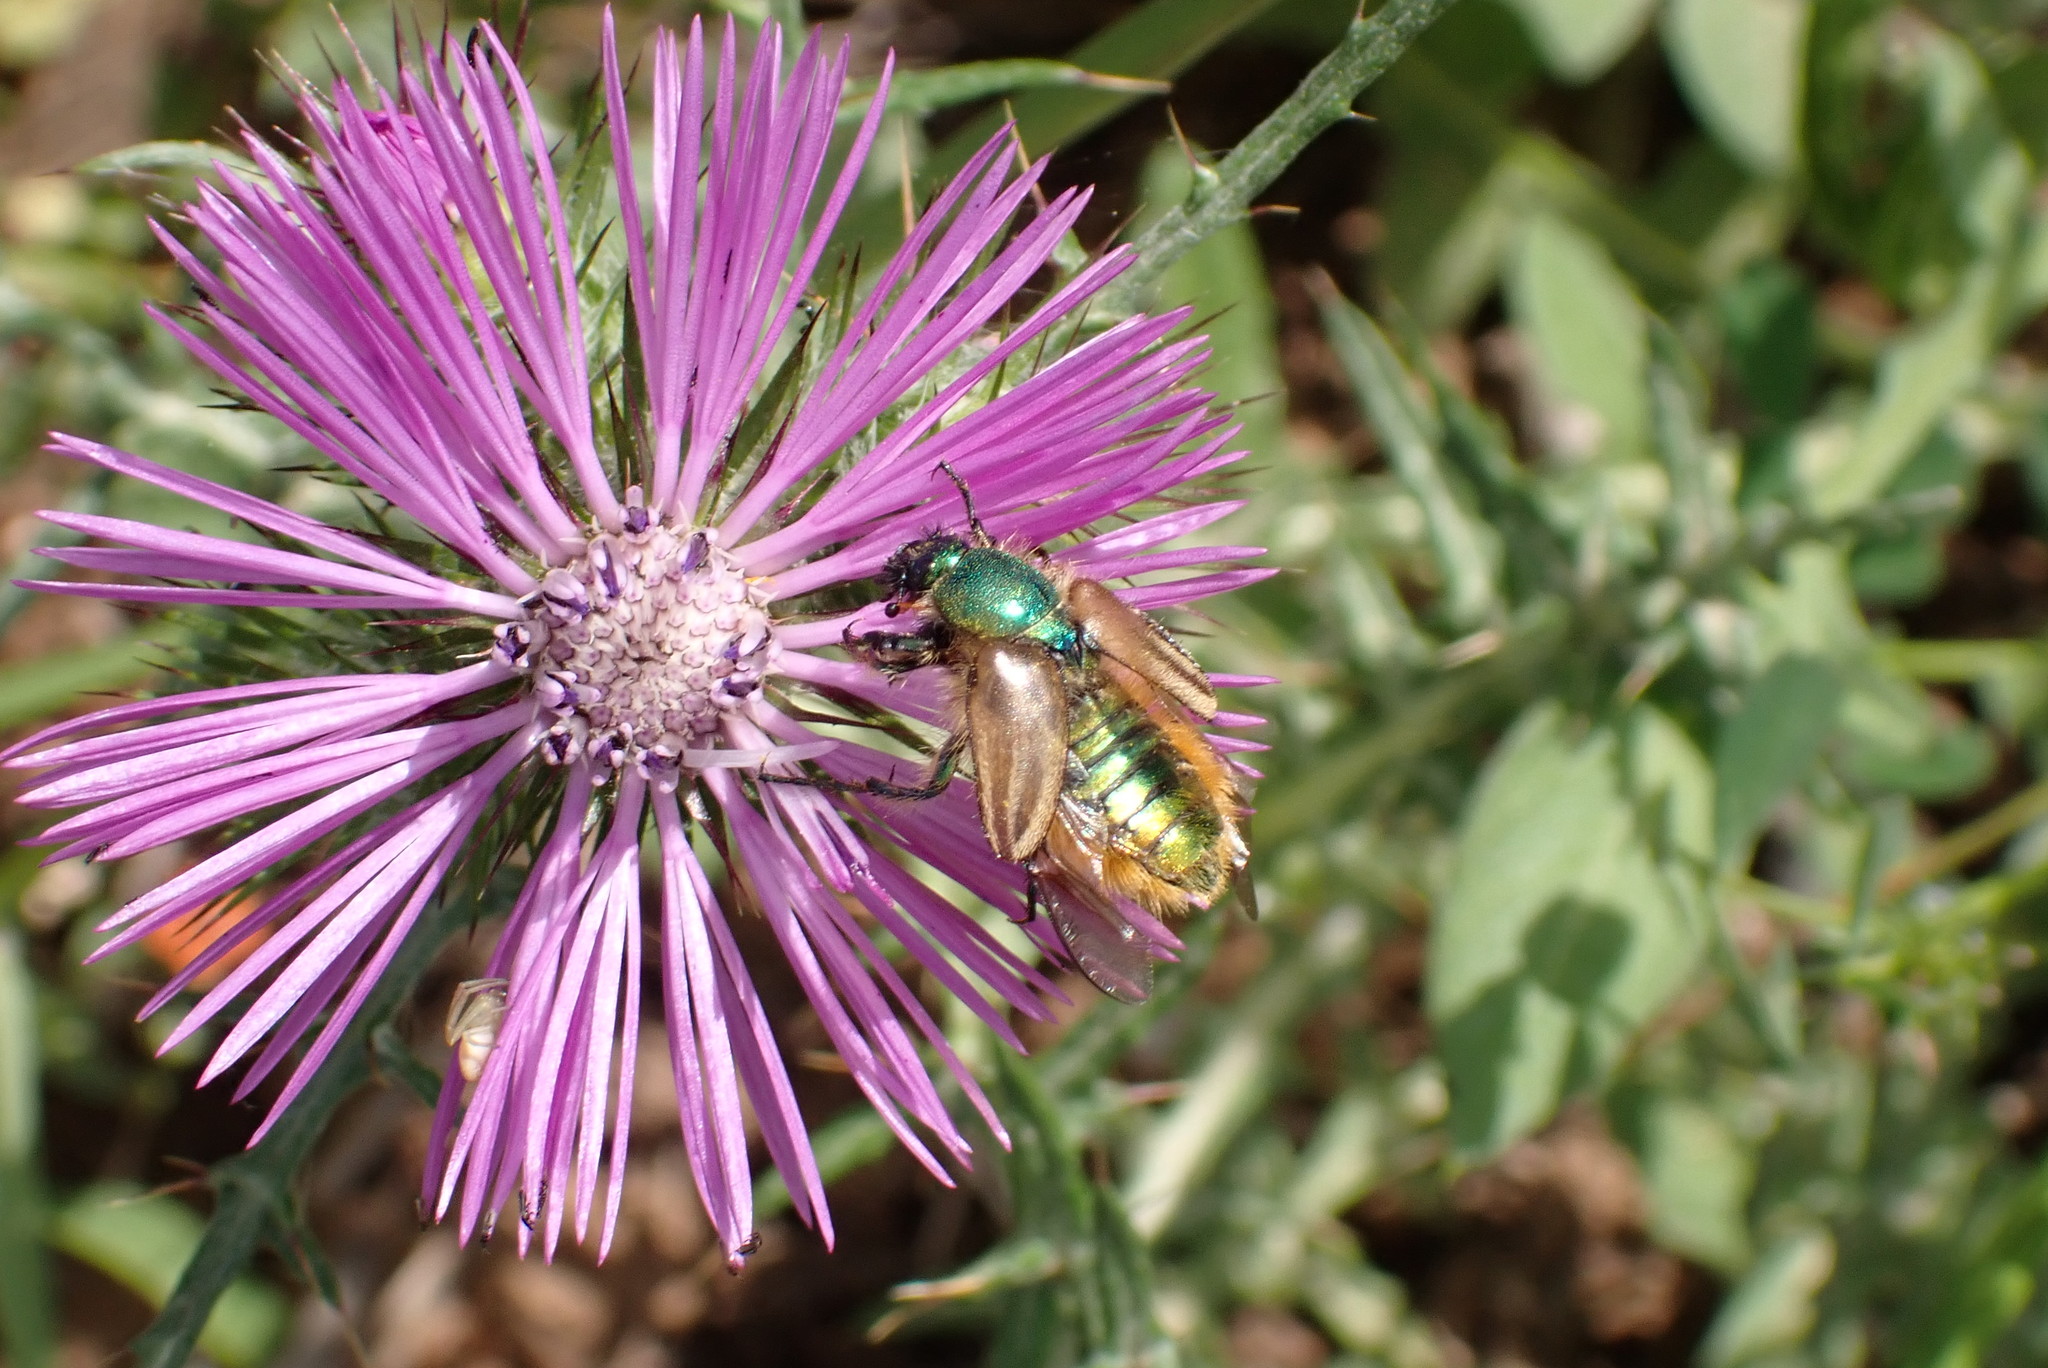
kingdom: Animalia
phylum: Arthropoda
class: Insecta
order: Coleoptera
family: Glaphyridae
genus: Eulasia
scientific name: Eulasia pareyssei
